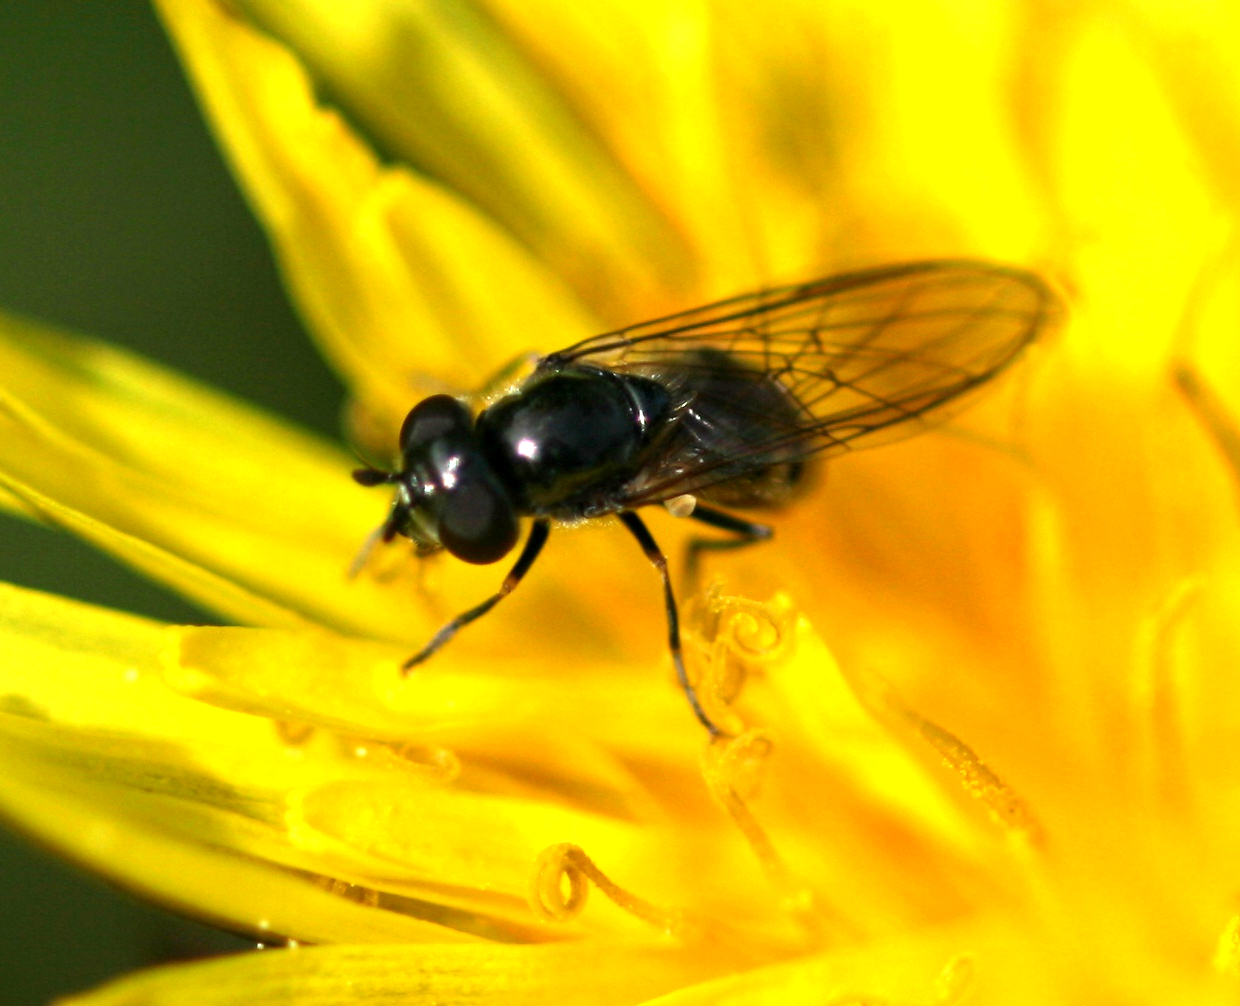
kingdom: Animalia
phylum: Arthropoda
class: Insecta
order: Diptera
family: Syrphidae
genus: Platycheirus
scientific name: Platycheirus discimanus
